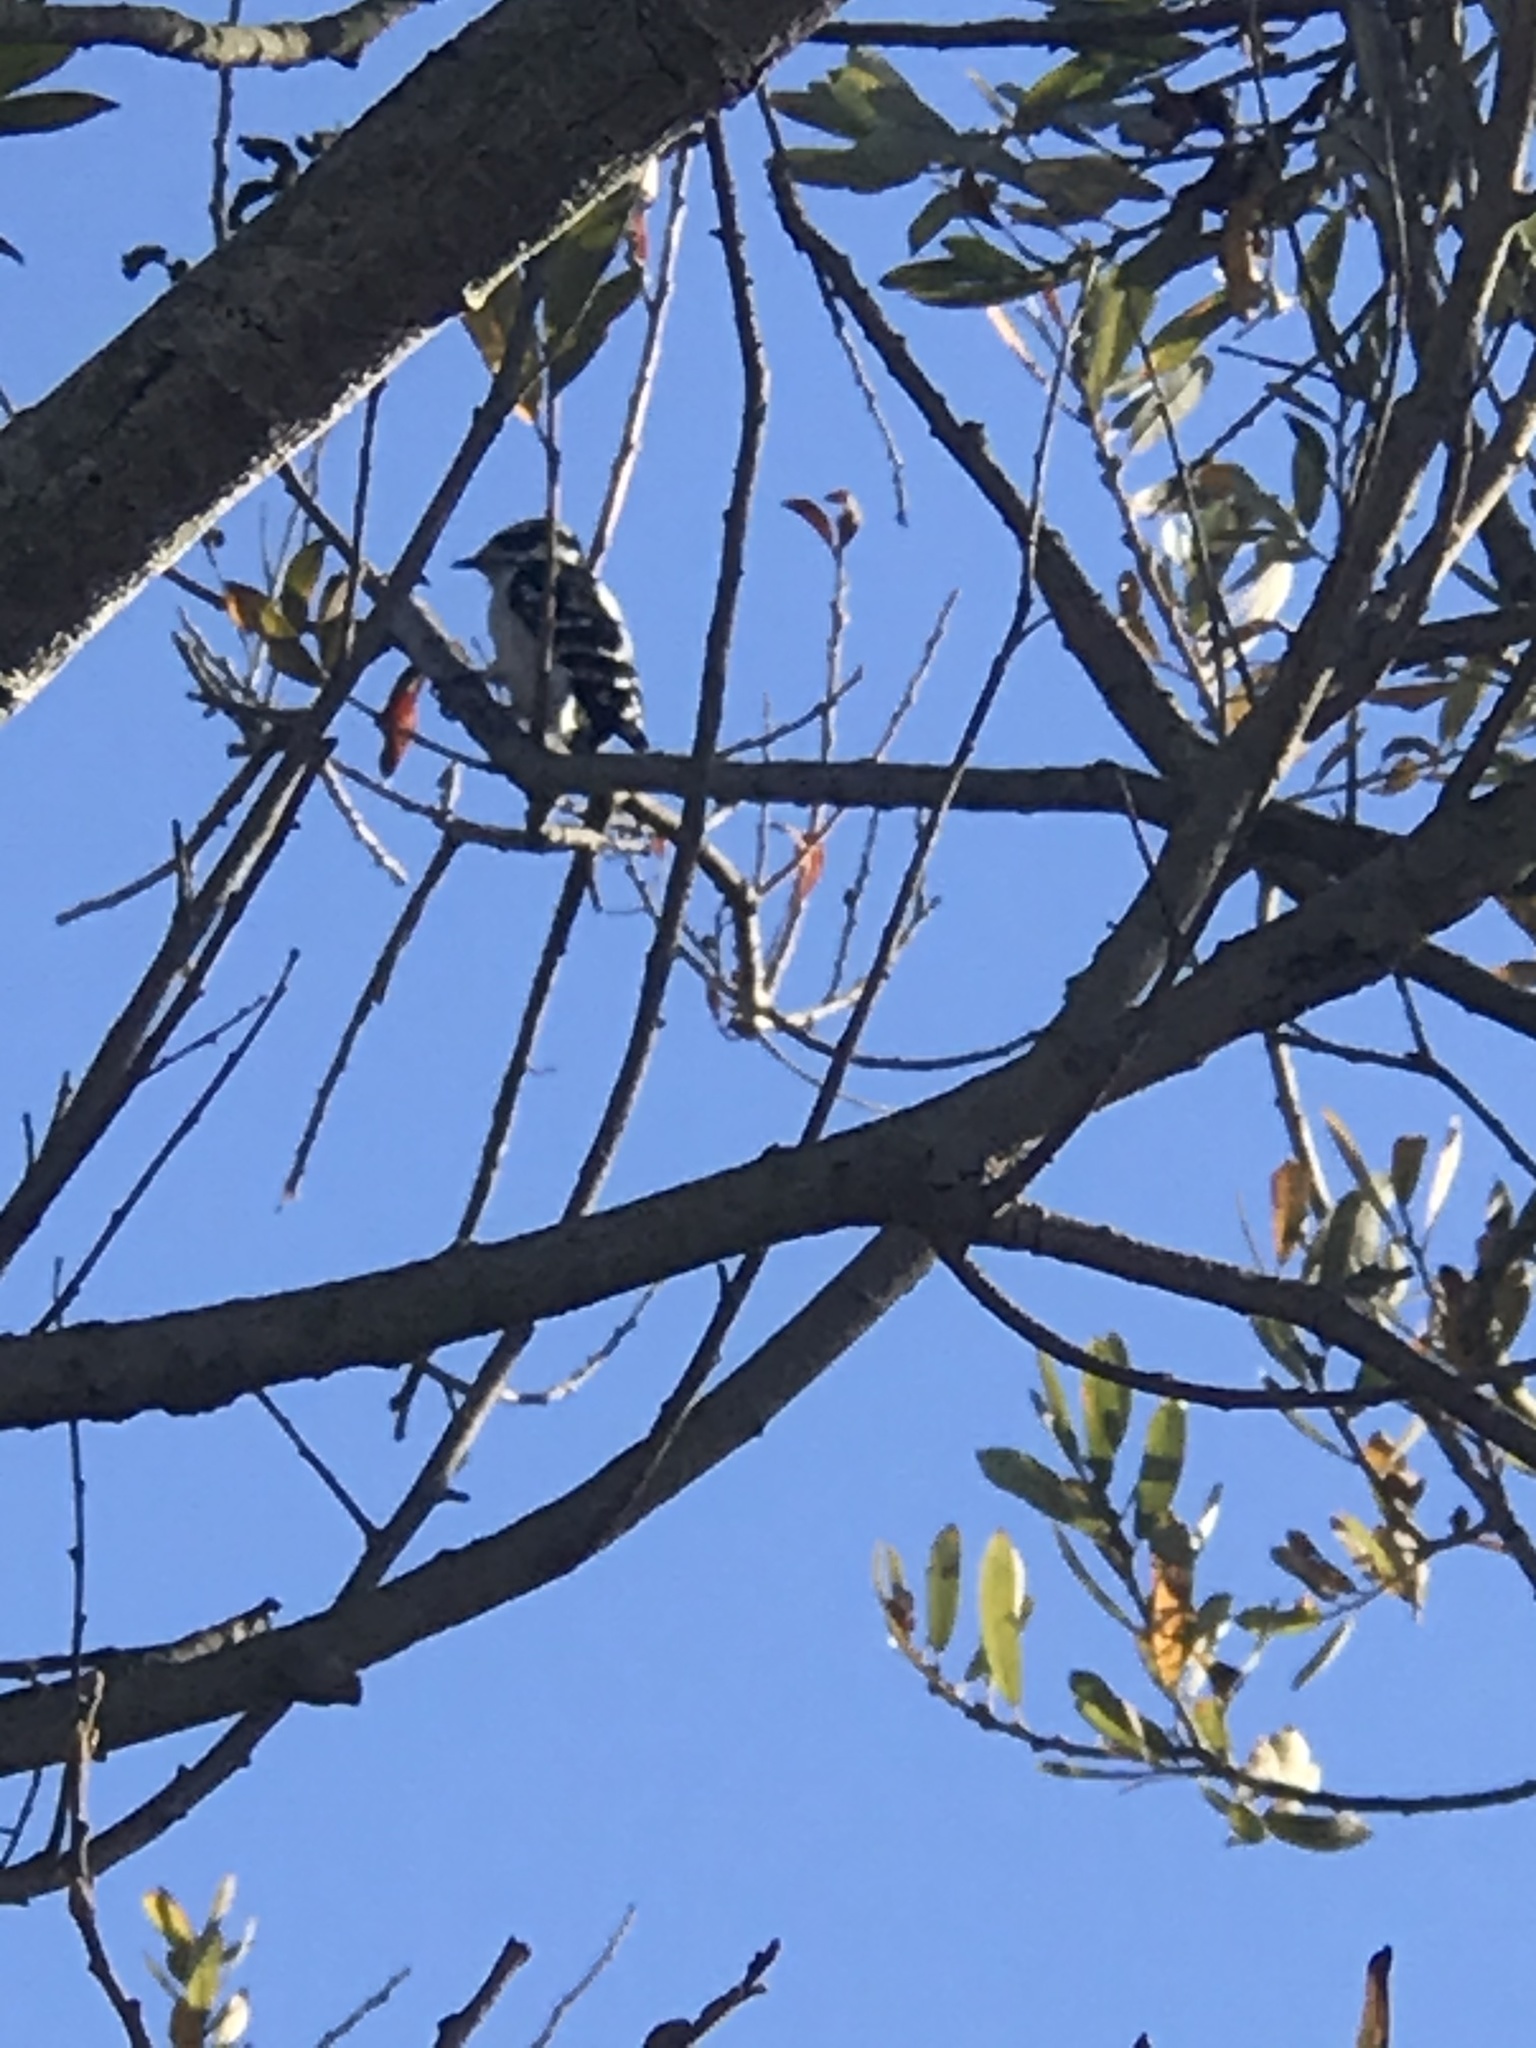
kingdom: Animalia
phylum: Chordata
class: Aves
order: Piciformes
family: Picidae
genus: Dryobates
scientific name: Dryobates pubescens
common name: Downy woodpecker
